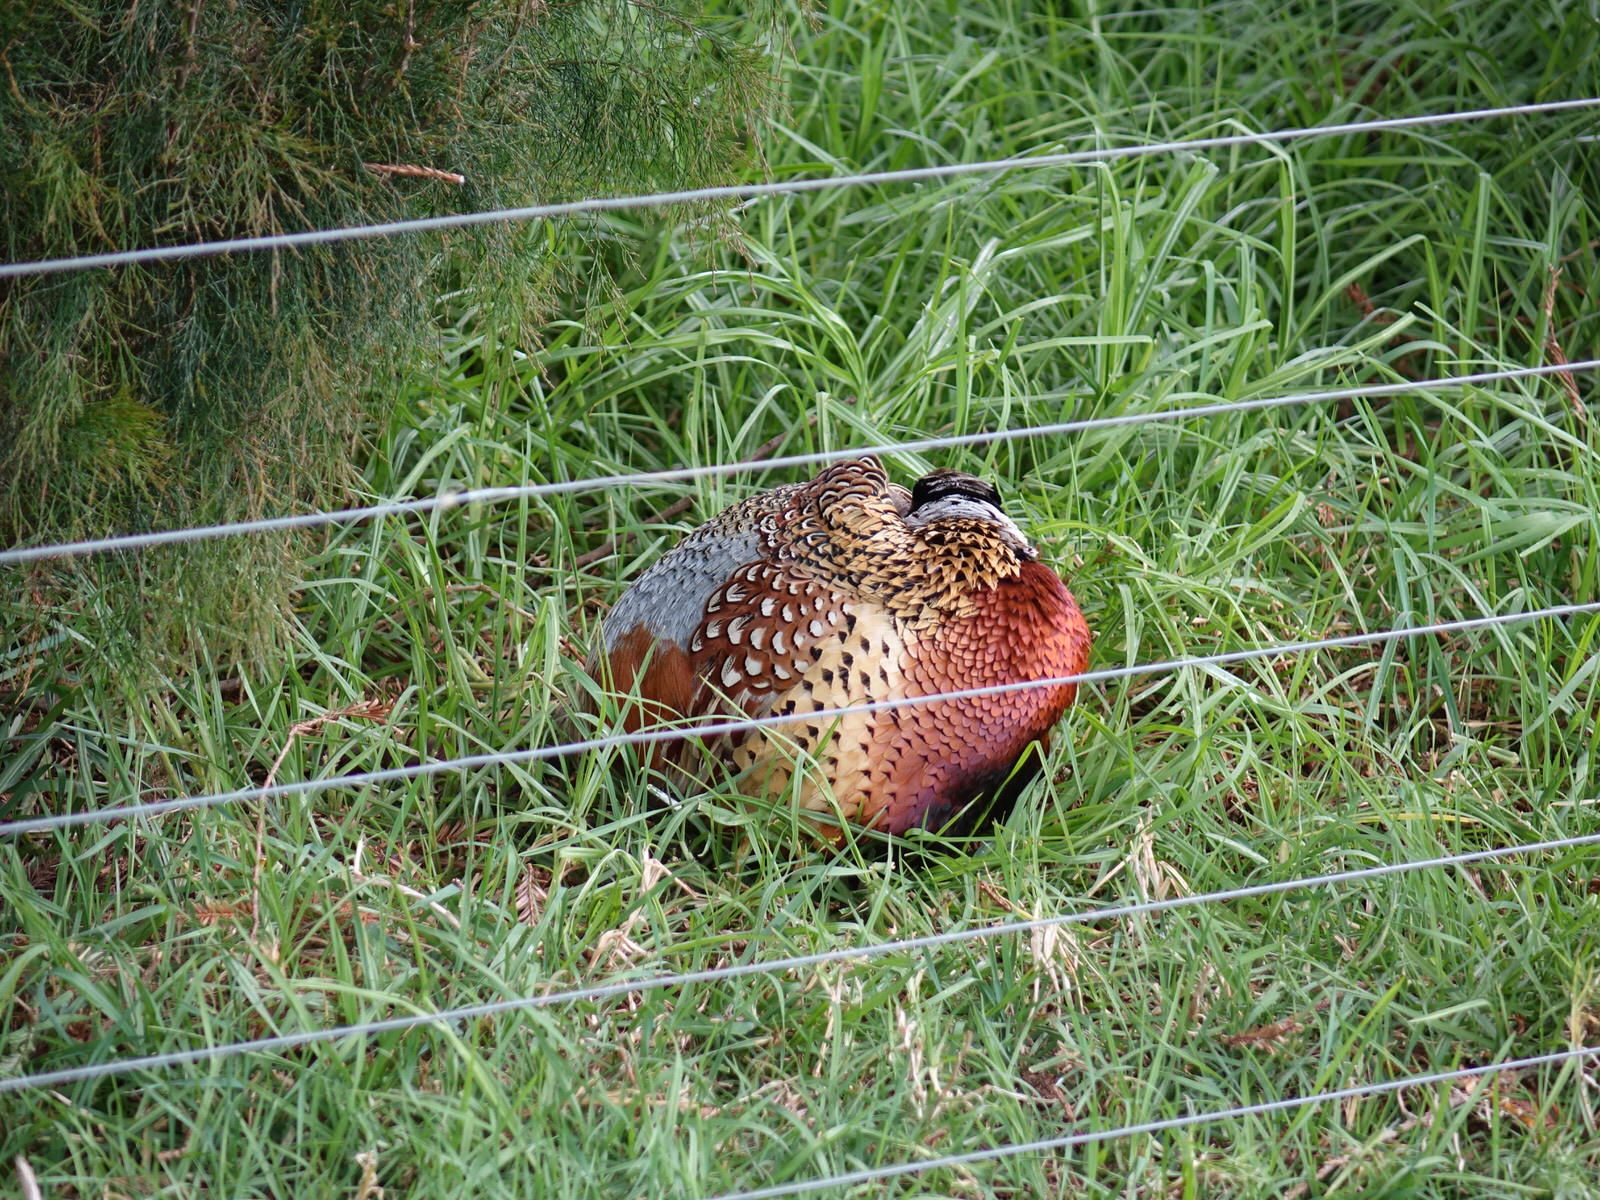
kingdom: Animalia
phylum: Chordata
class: Aves
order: Galliformes
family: Phasianidae
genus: Phasianus
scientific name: Phasianus colchicus
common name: Common pheasant
